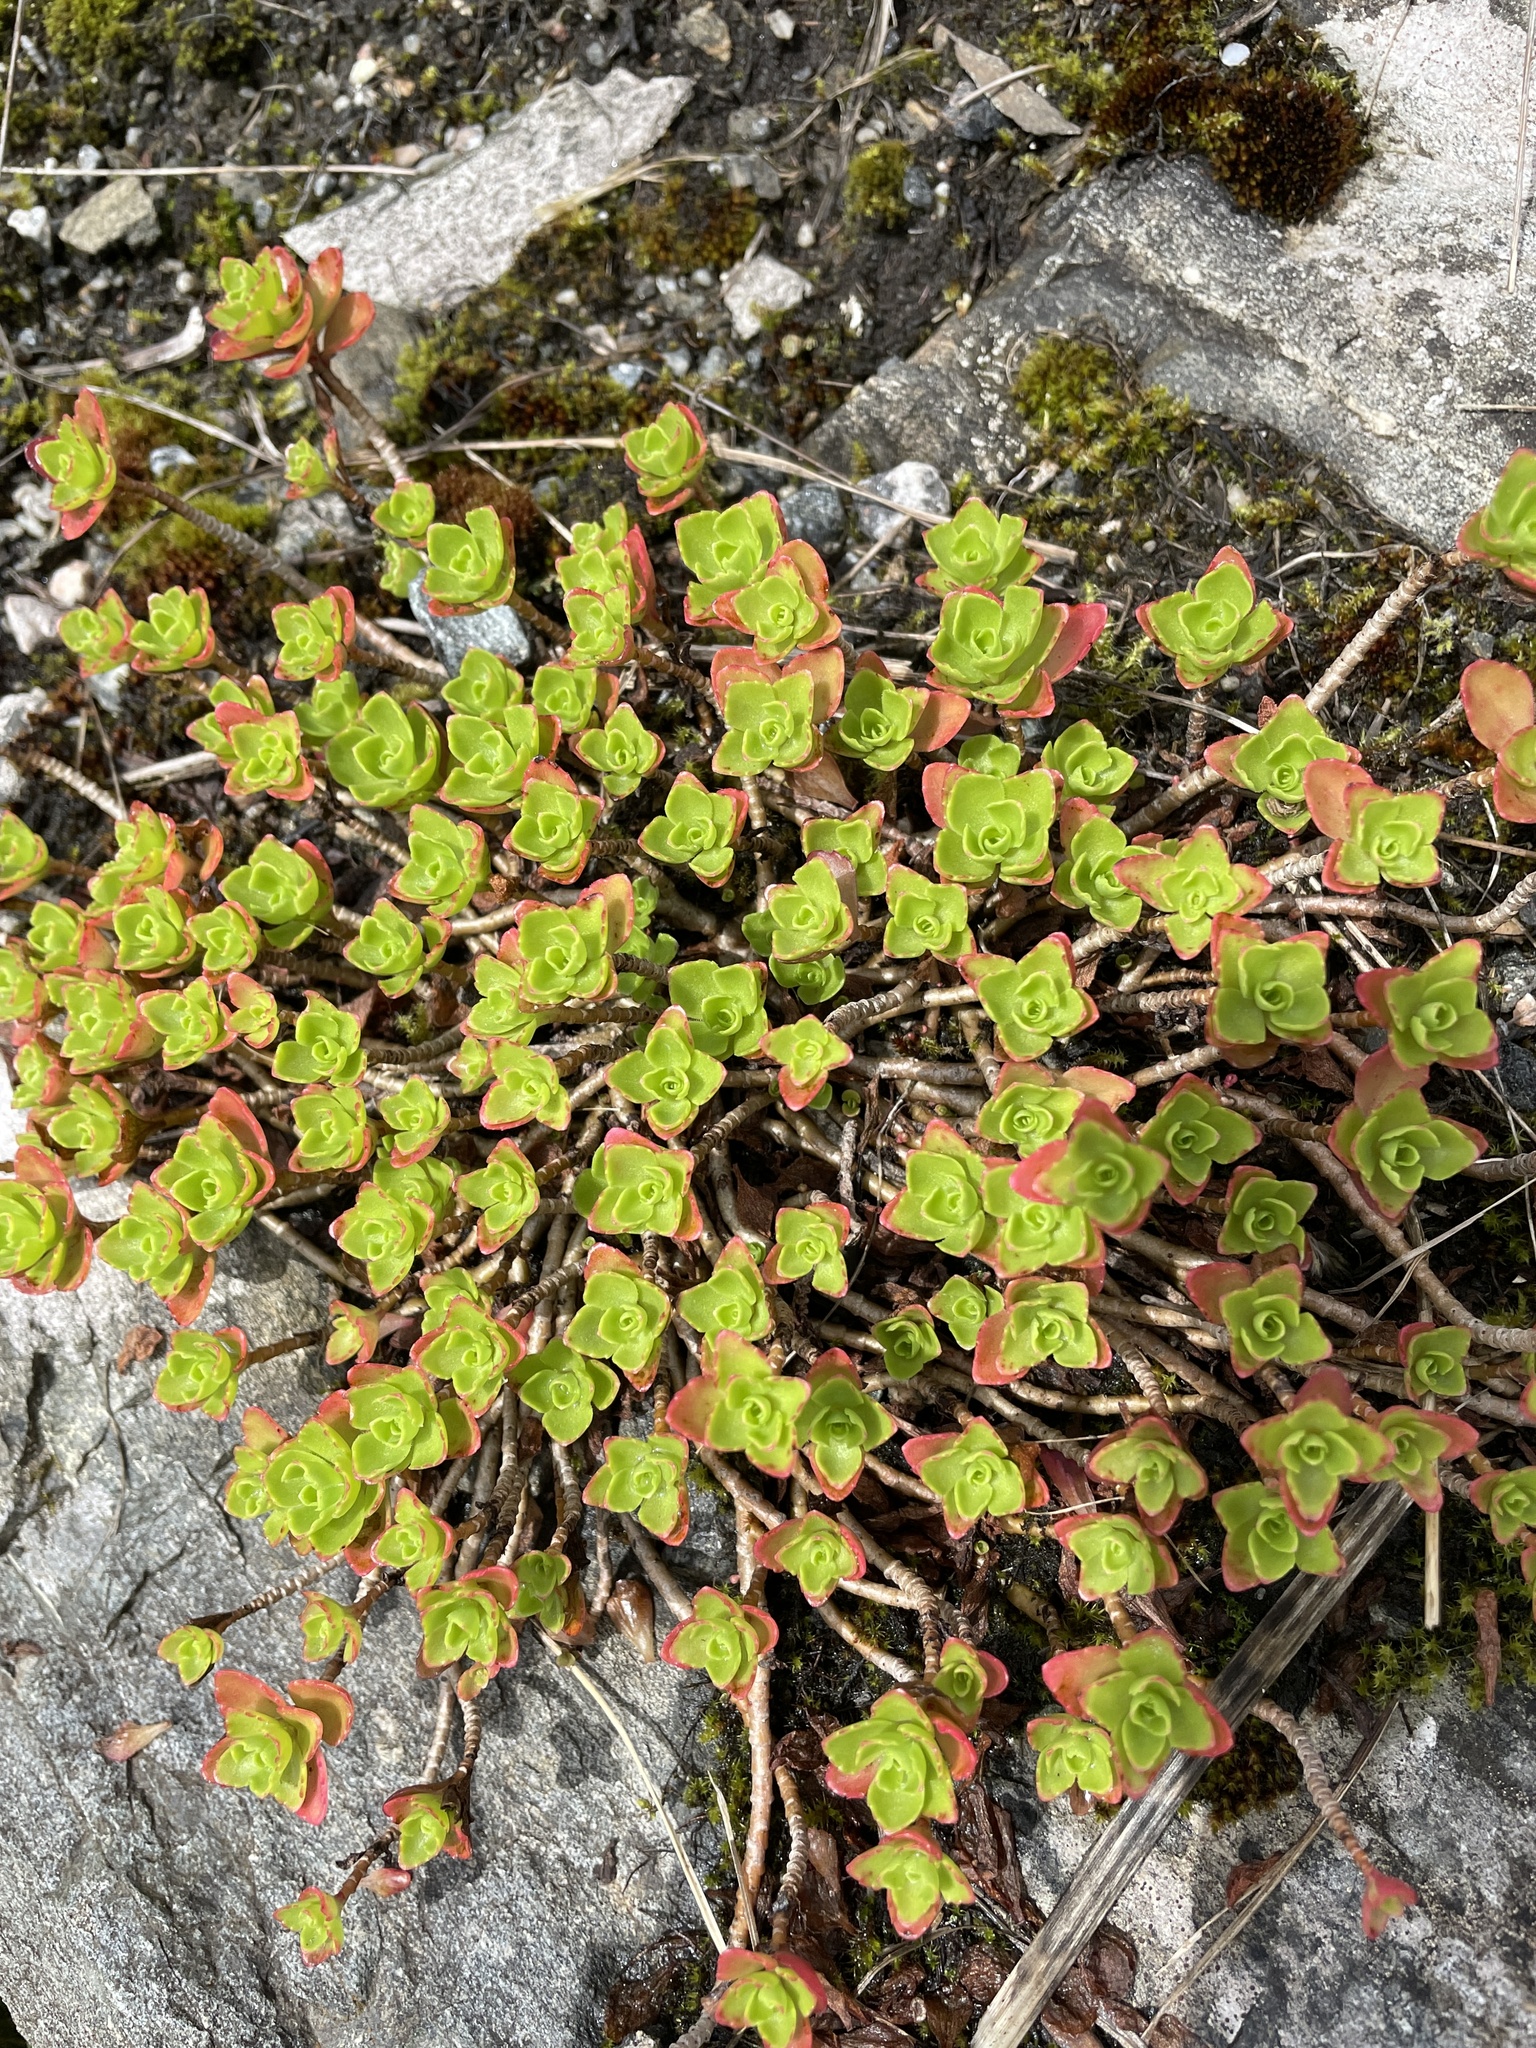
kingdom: Plantae
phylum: Tracheophyta
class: Magnoliopsida
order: Saxifragales
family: Crassulaceae
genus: Phedimus
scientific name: Phedimus spurius
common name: Caucasian stonecrop
